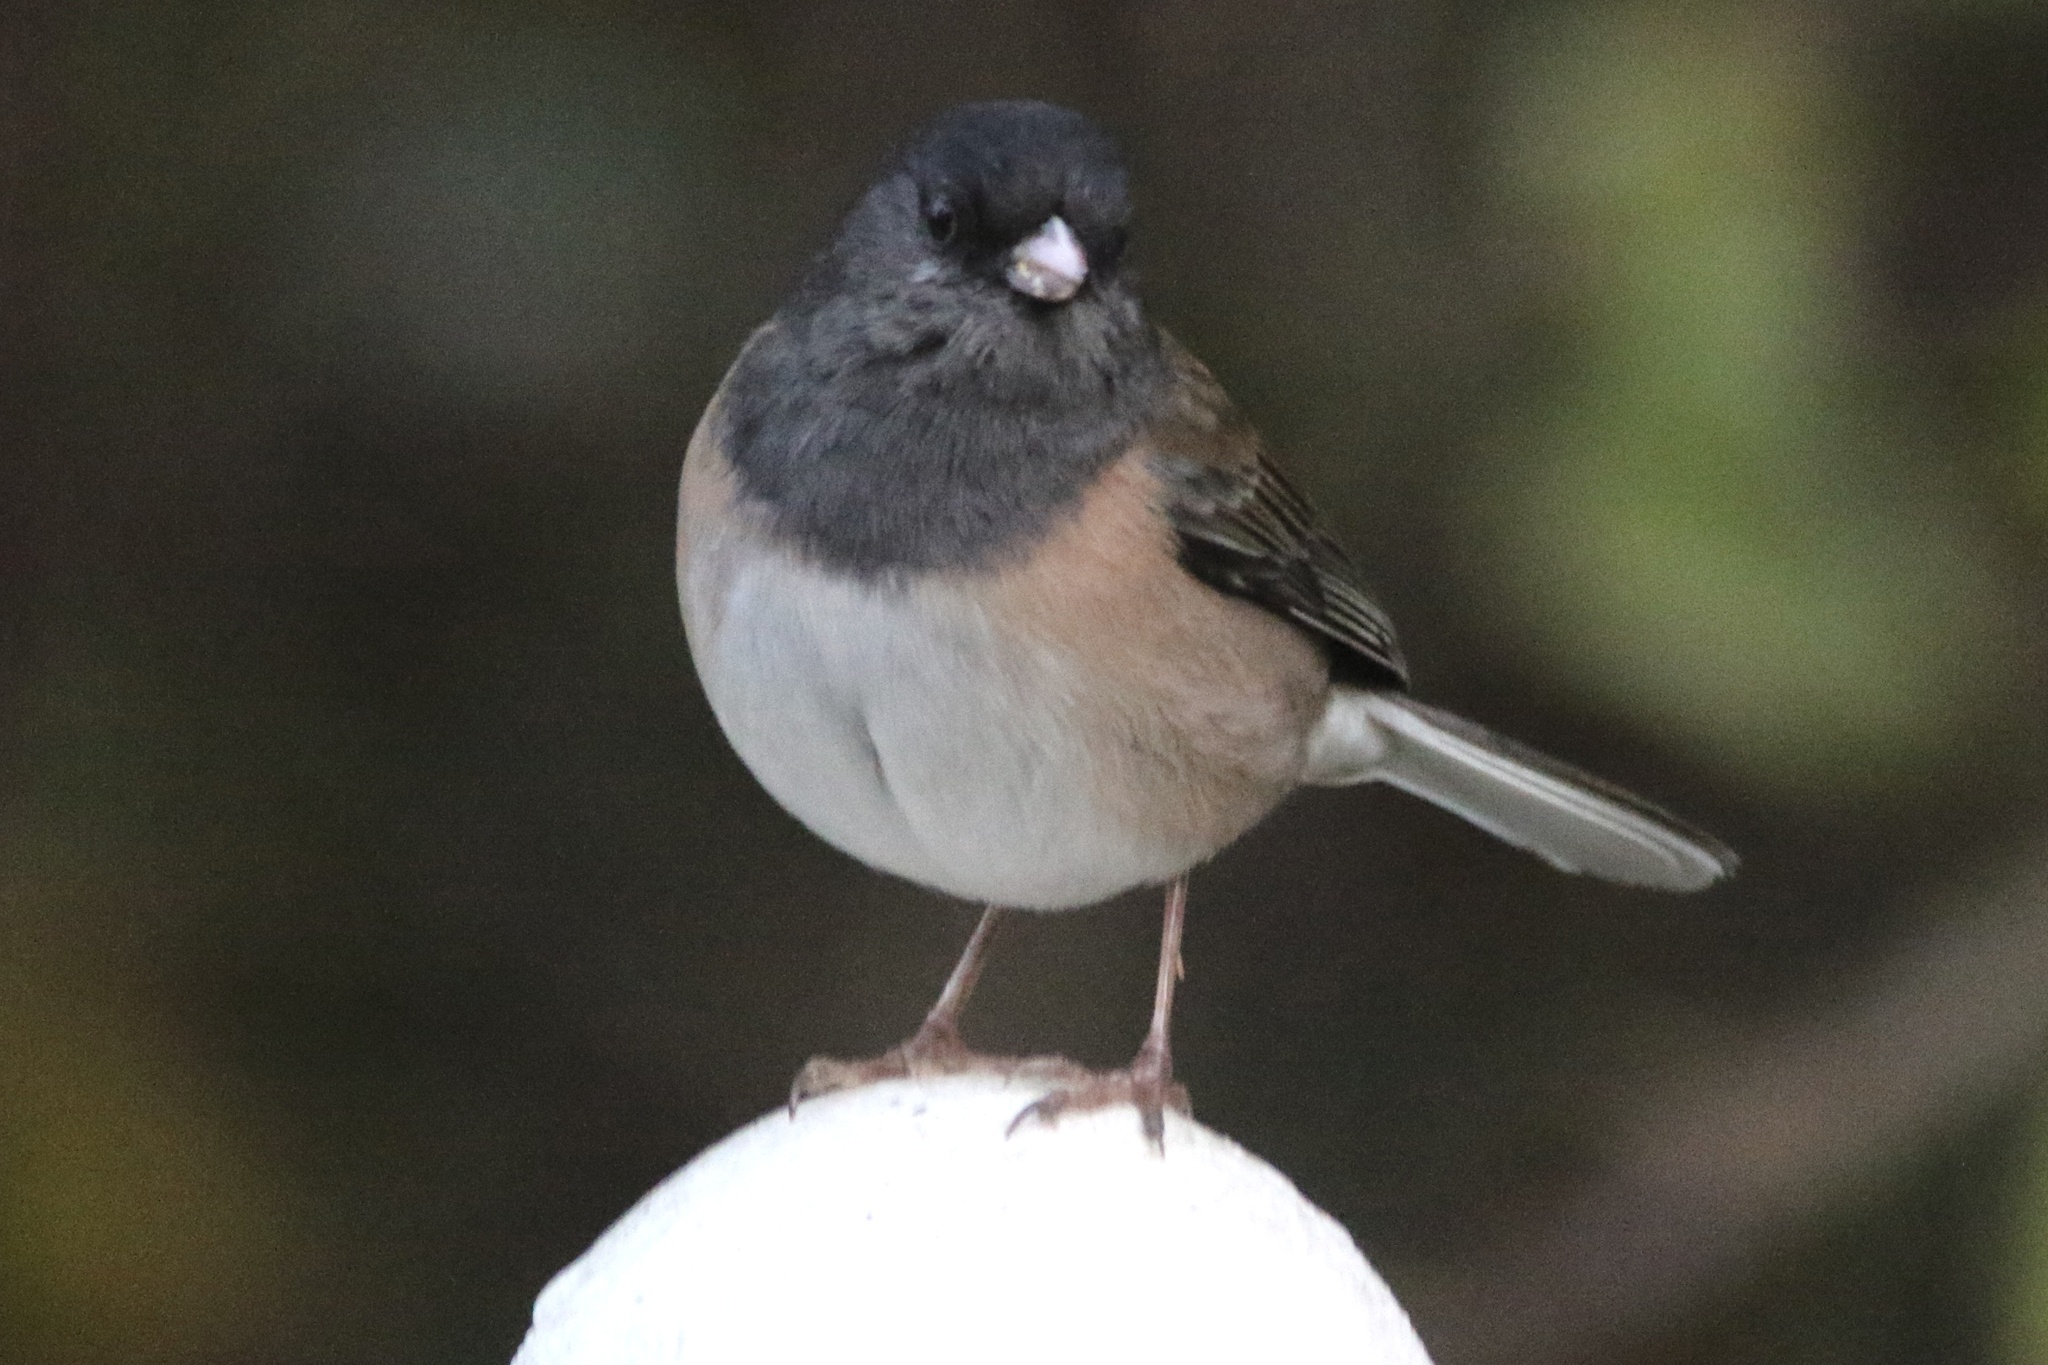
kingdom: Animalia
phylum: Chordata
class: Aves
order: Passeriformes
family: Passerellidae
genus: Junco
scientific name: Junco hyemalis
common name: Dark-eyed junco
